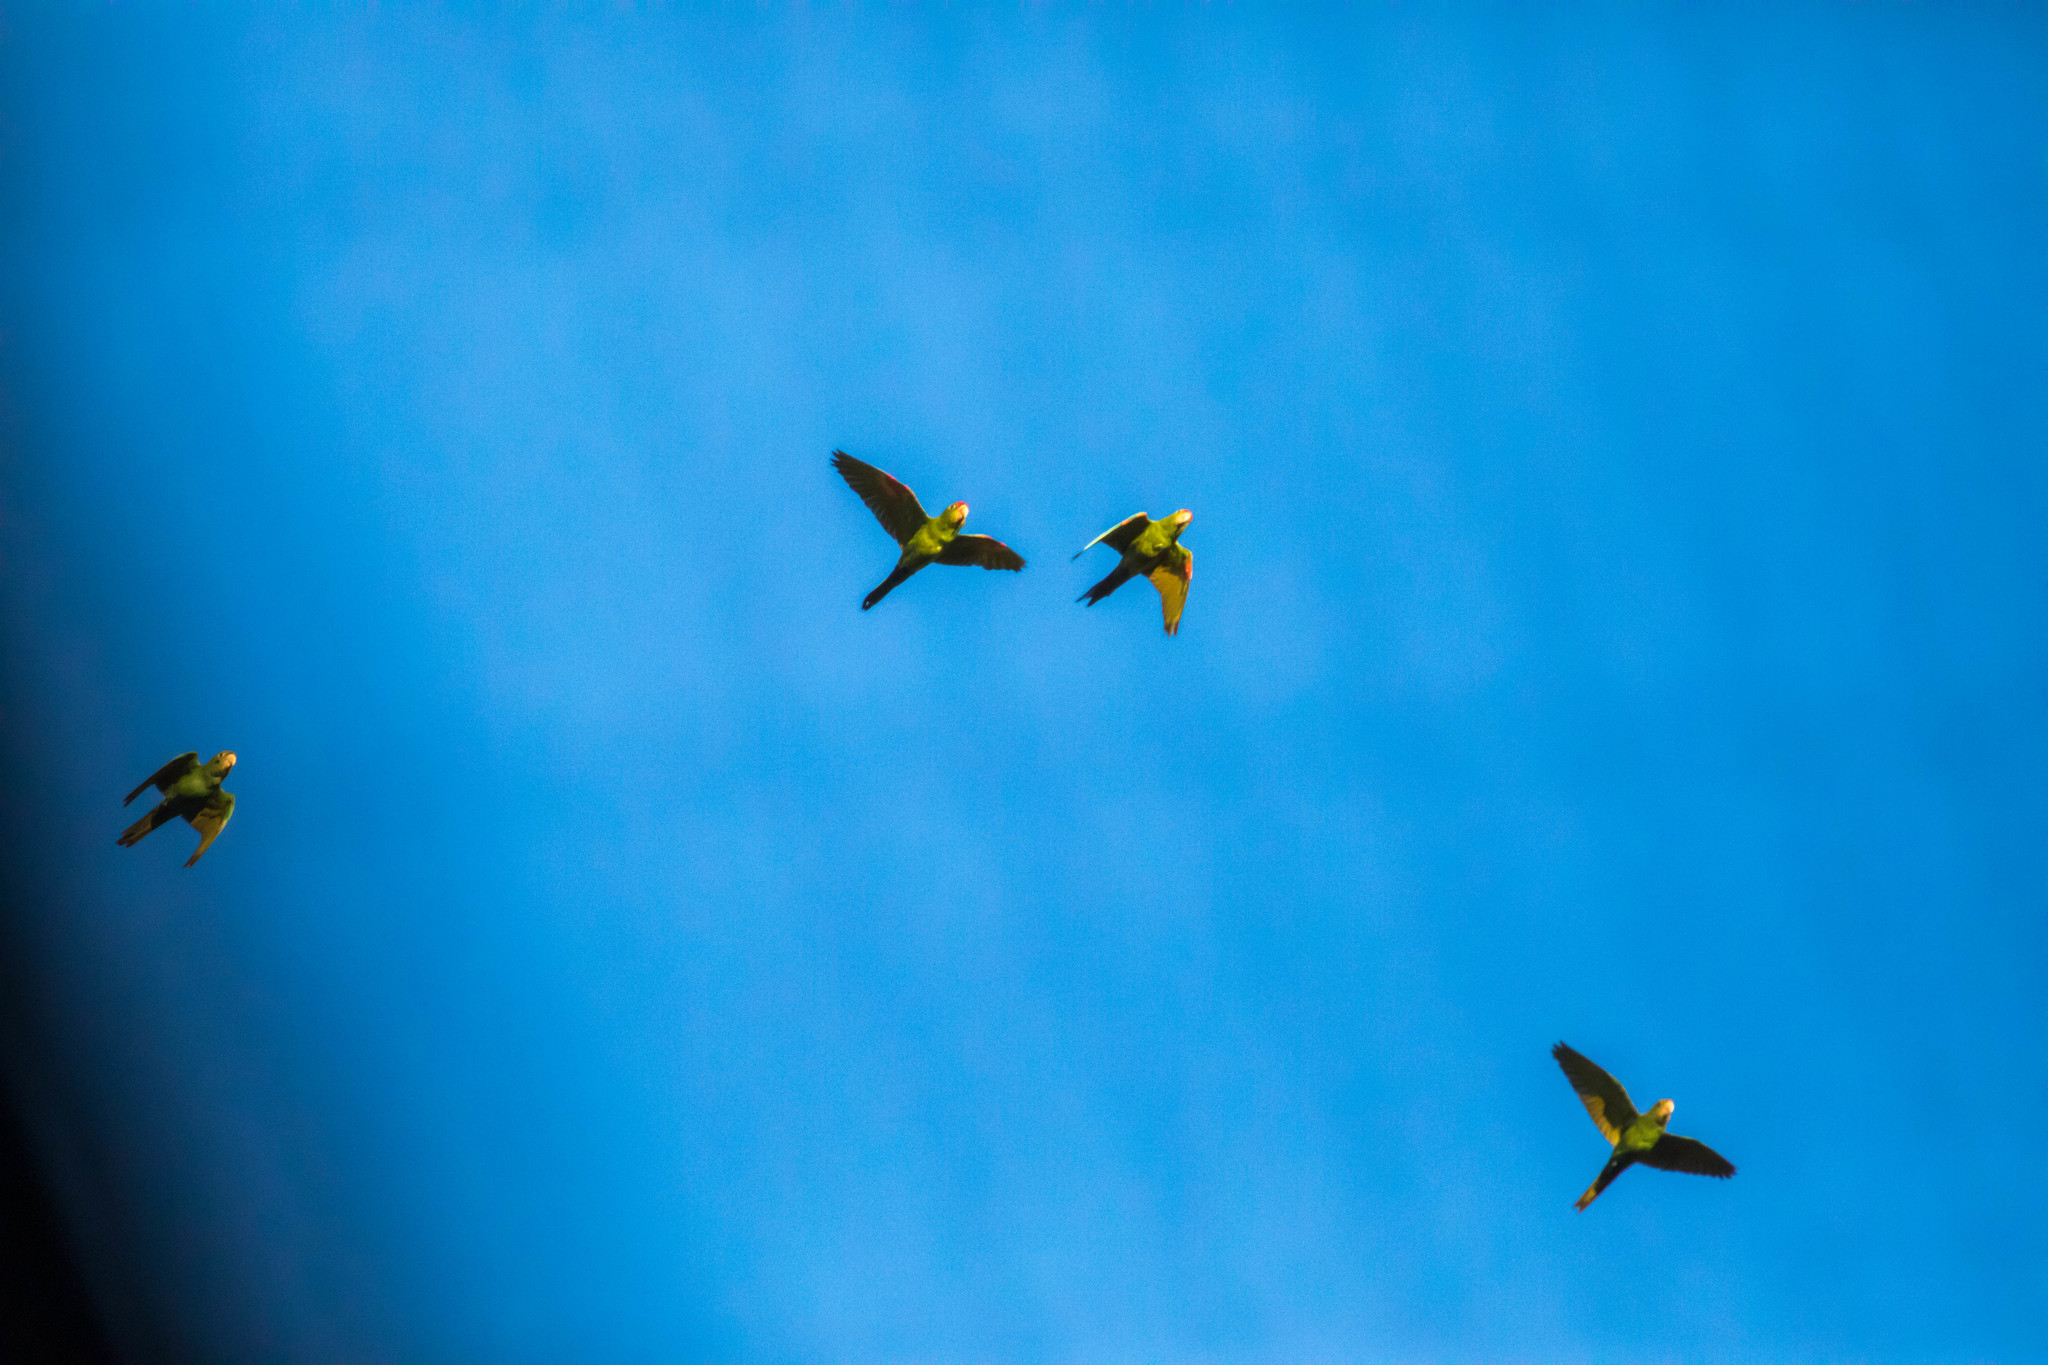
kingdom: Animalia
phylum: Chordata
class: Aves
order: Psittaciformes
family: Psittacidae
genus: Aratinga
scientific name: Aratinga finschi
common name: Crimson-fronted parakeet
